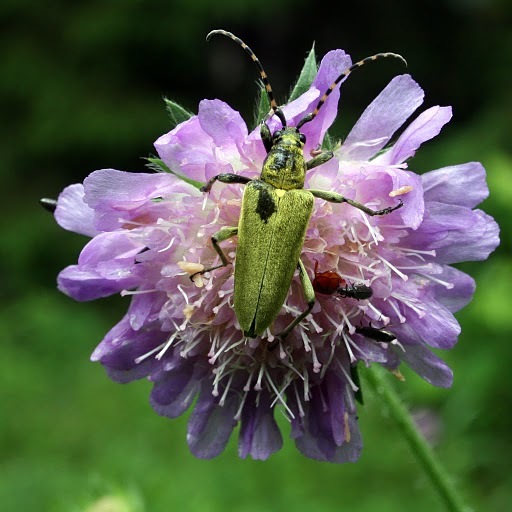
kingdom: Animalia
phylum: Arthropoda
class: Insecta
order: Coleoptera
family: Cerambycidae
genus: Lepturobosca
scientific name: Lepturobosca virens
